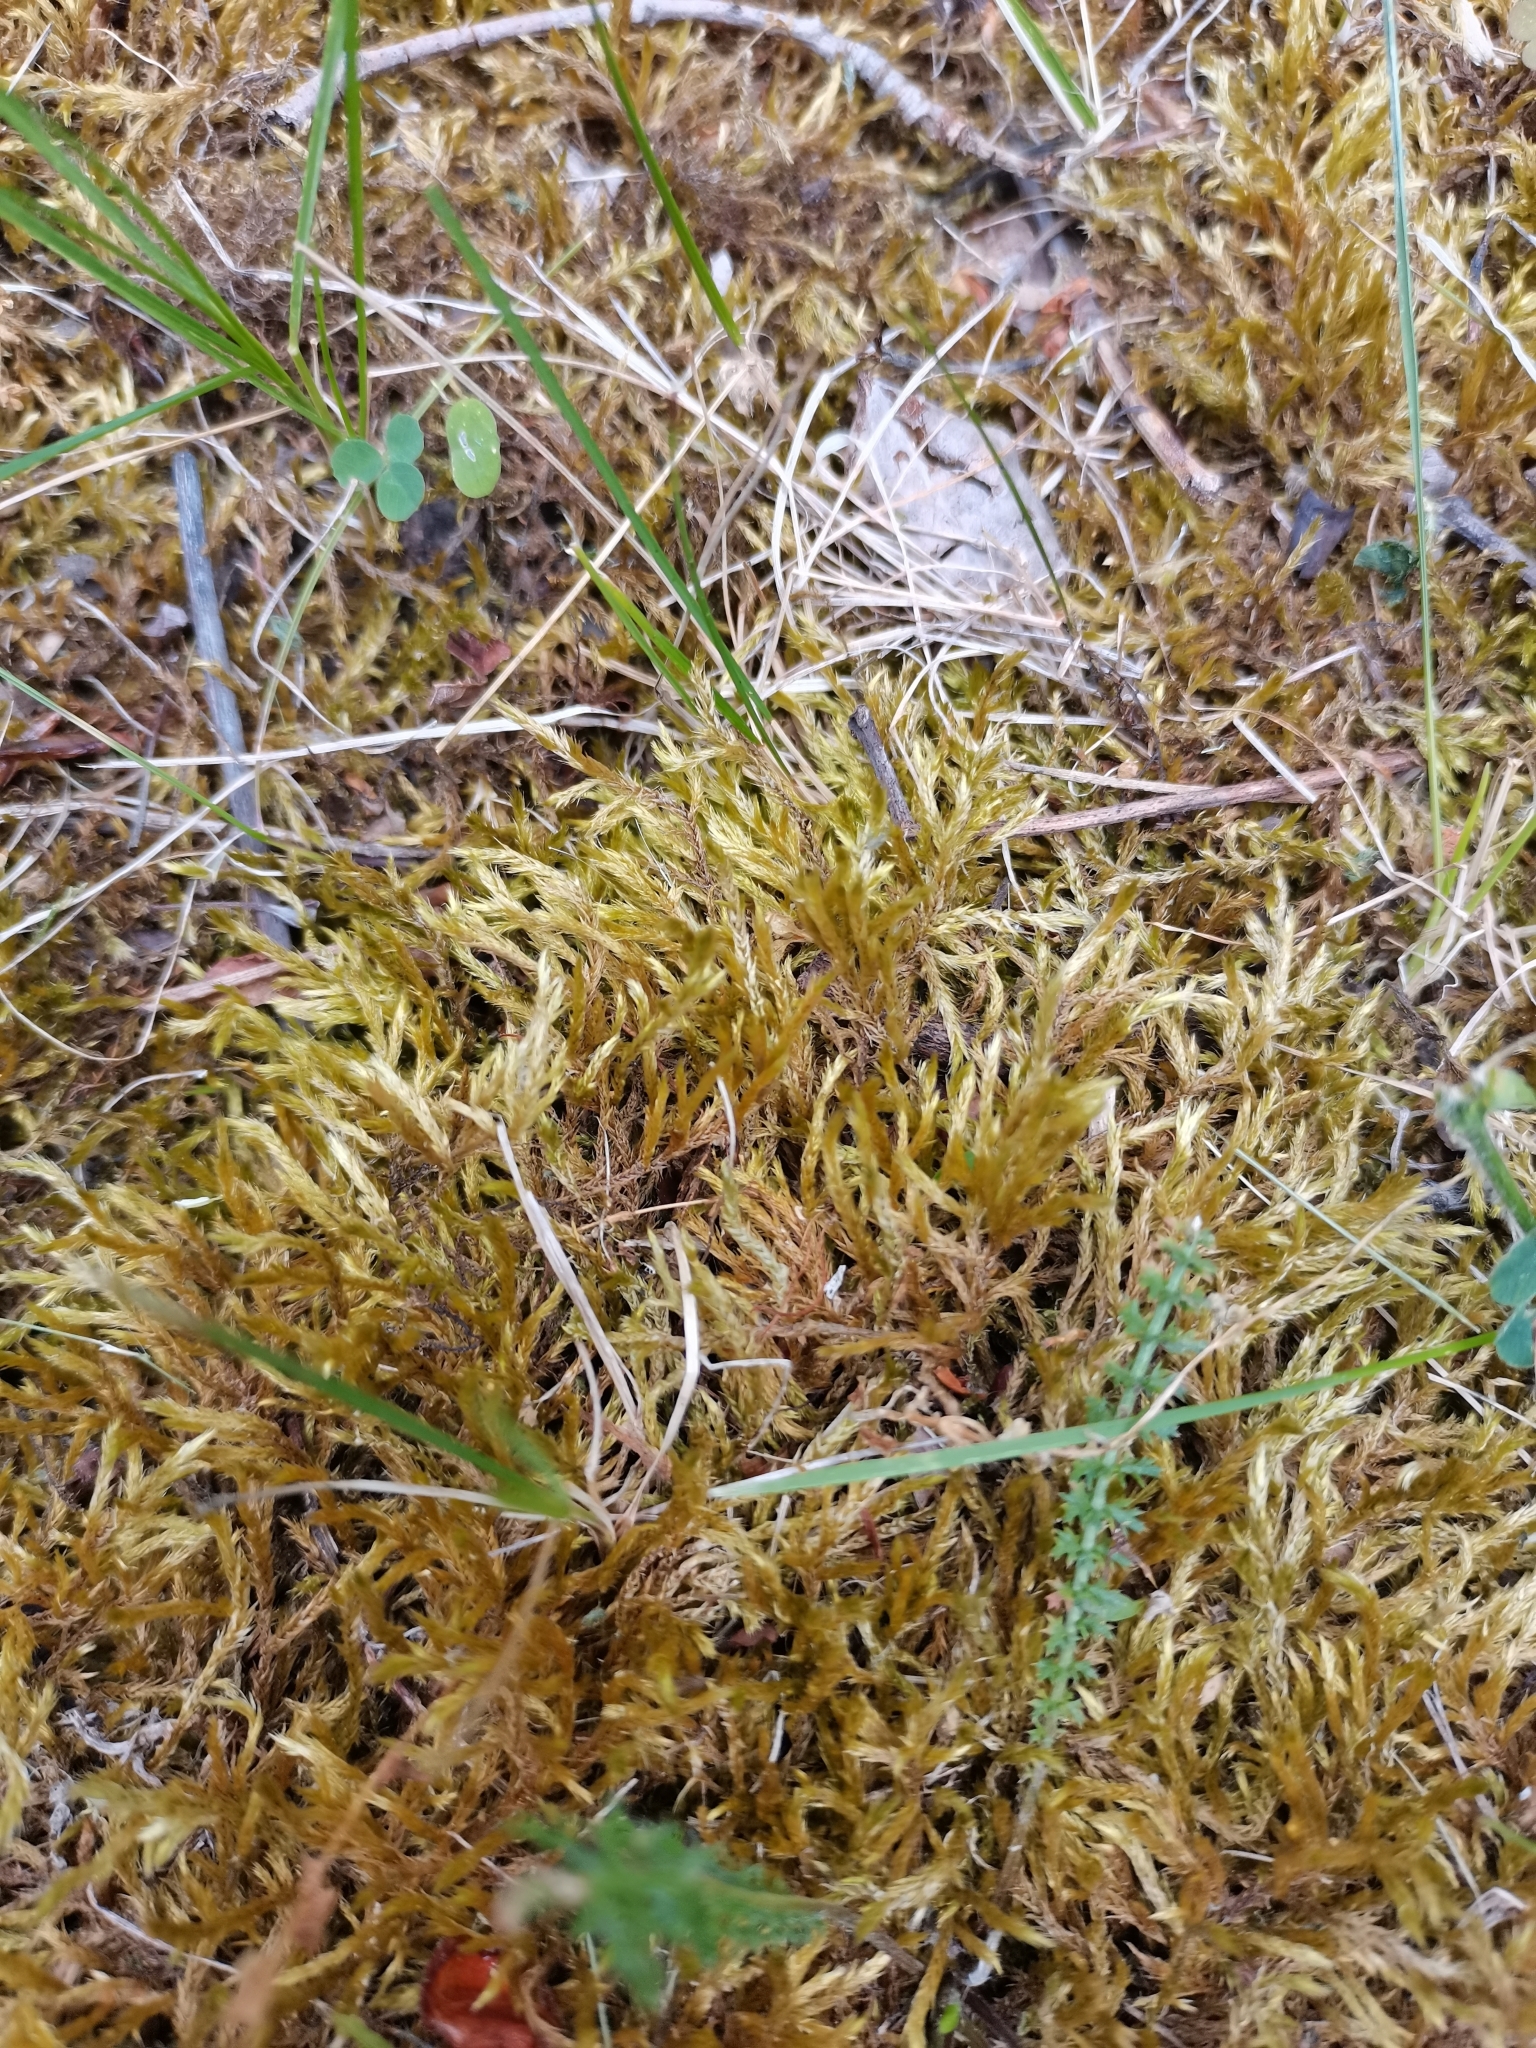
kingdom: Plantae
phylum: Bryophyta
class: Bryopsida
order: Hypnales
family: Brachytheciaceae
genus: Homalothecium
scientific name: Homalothecium lutescens
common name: Yellow feather-moss
